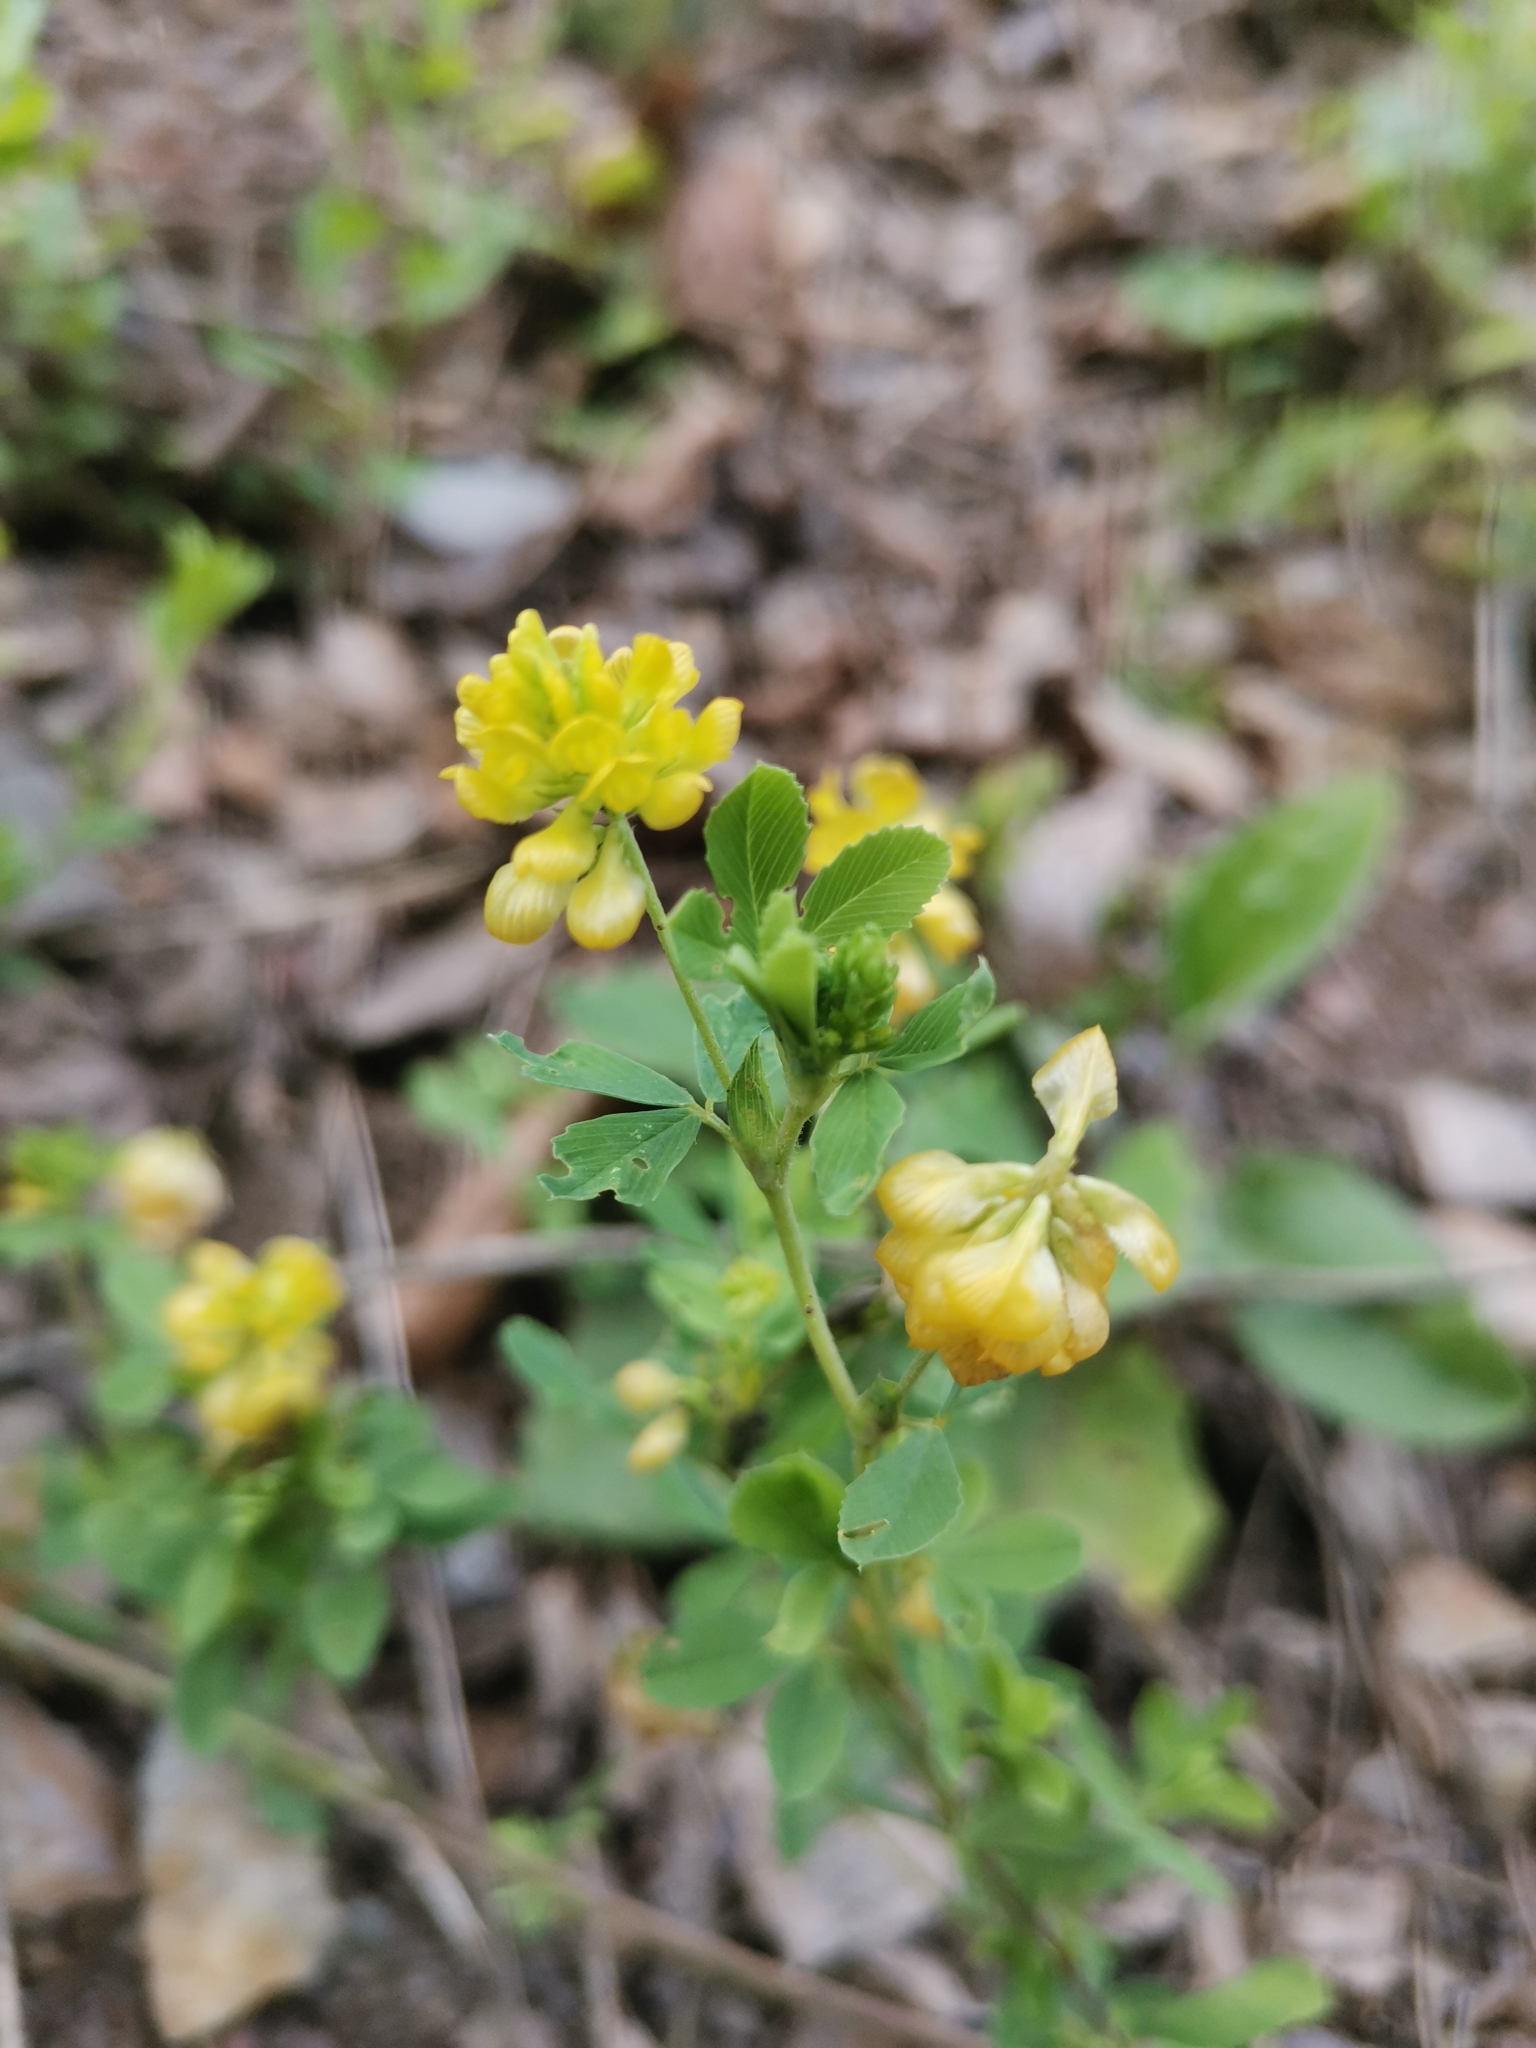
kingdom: Plantae
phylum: Tracheophyta
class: Magnoliopsida
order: Fabales
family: Fabaceae
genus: Trifolium
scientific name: Trifolium aureum
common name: Golden clover
